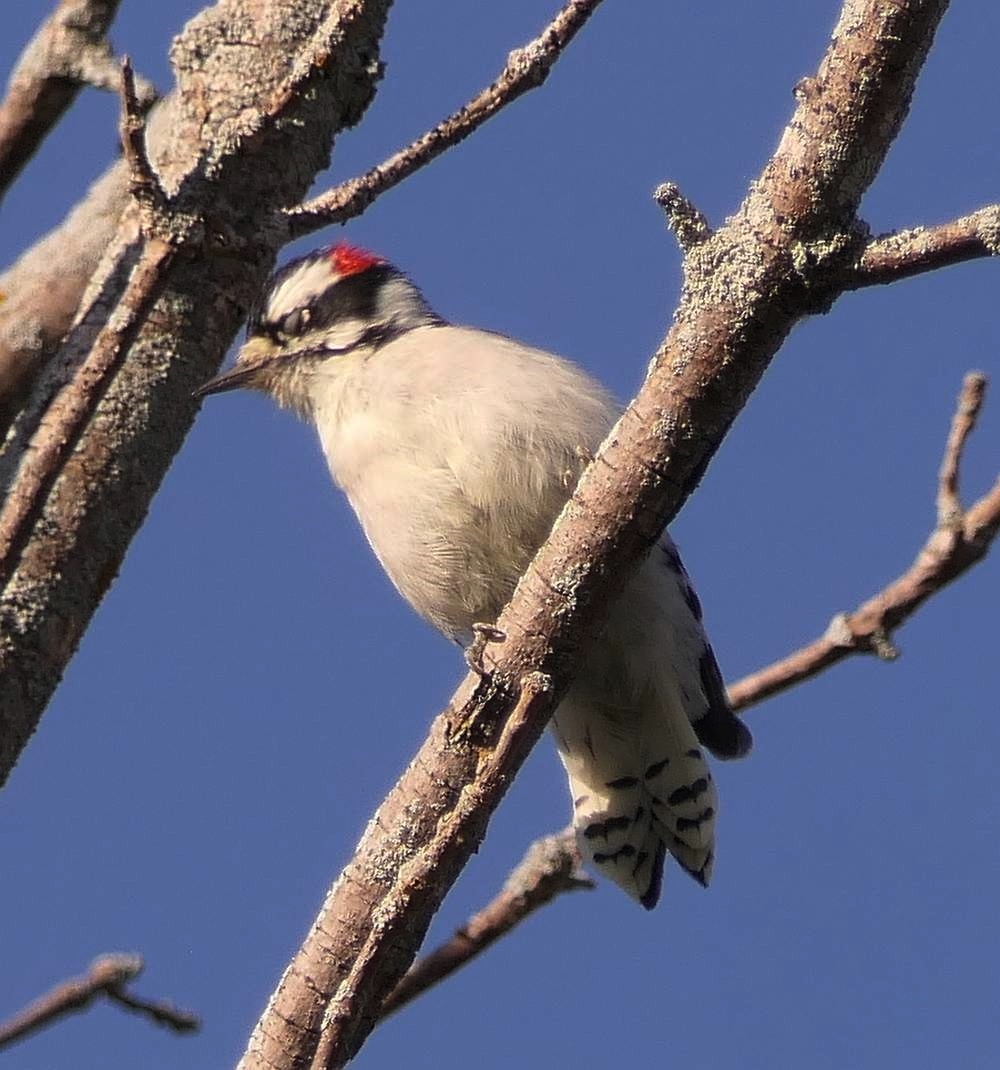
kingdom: Animalia
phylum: Chordata
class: Aves
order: Piciformes
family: Picidae
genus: Dryobates
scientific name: Dryobates pubescens
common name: Downy woodpecker
